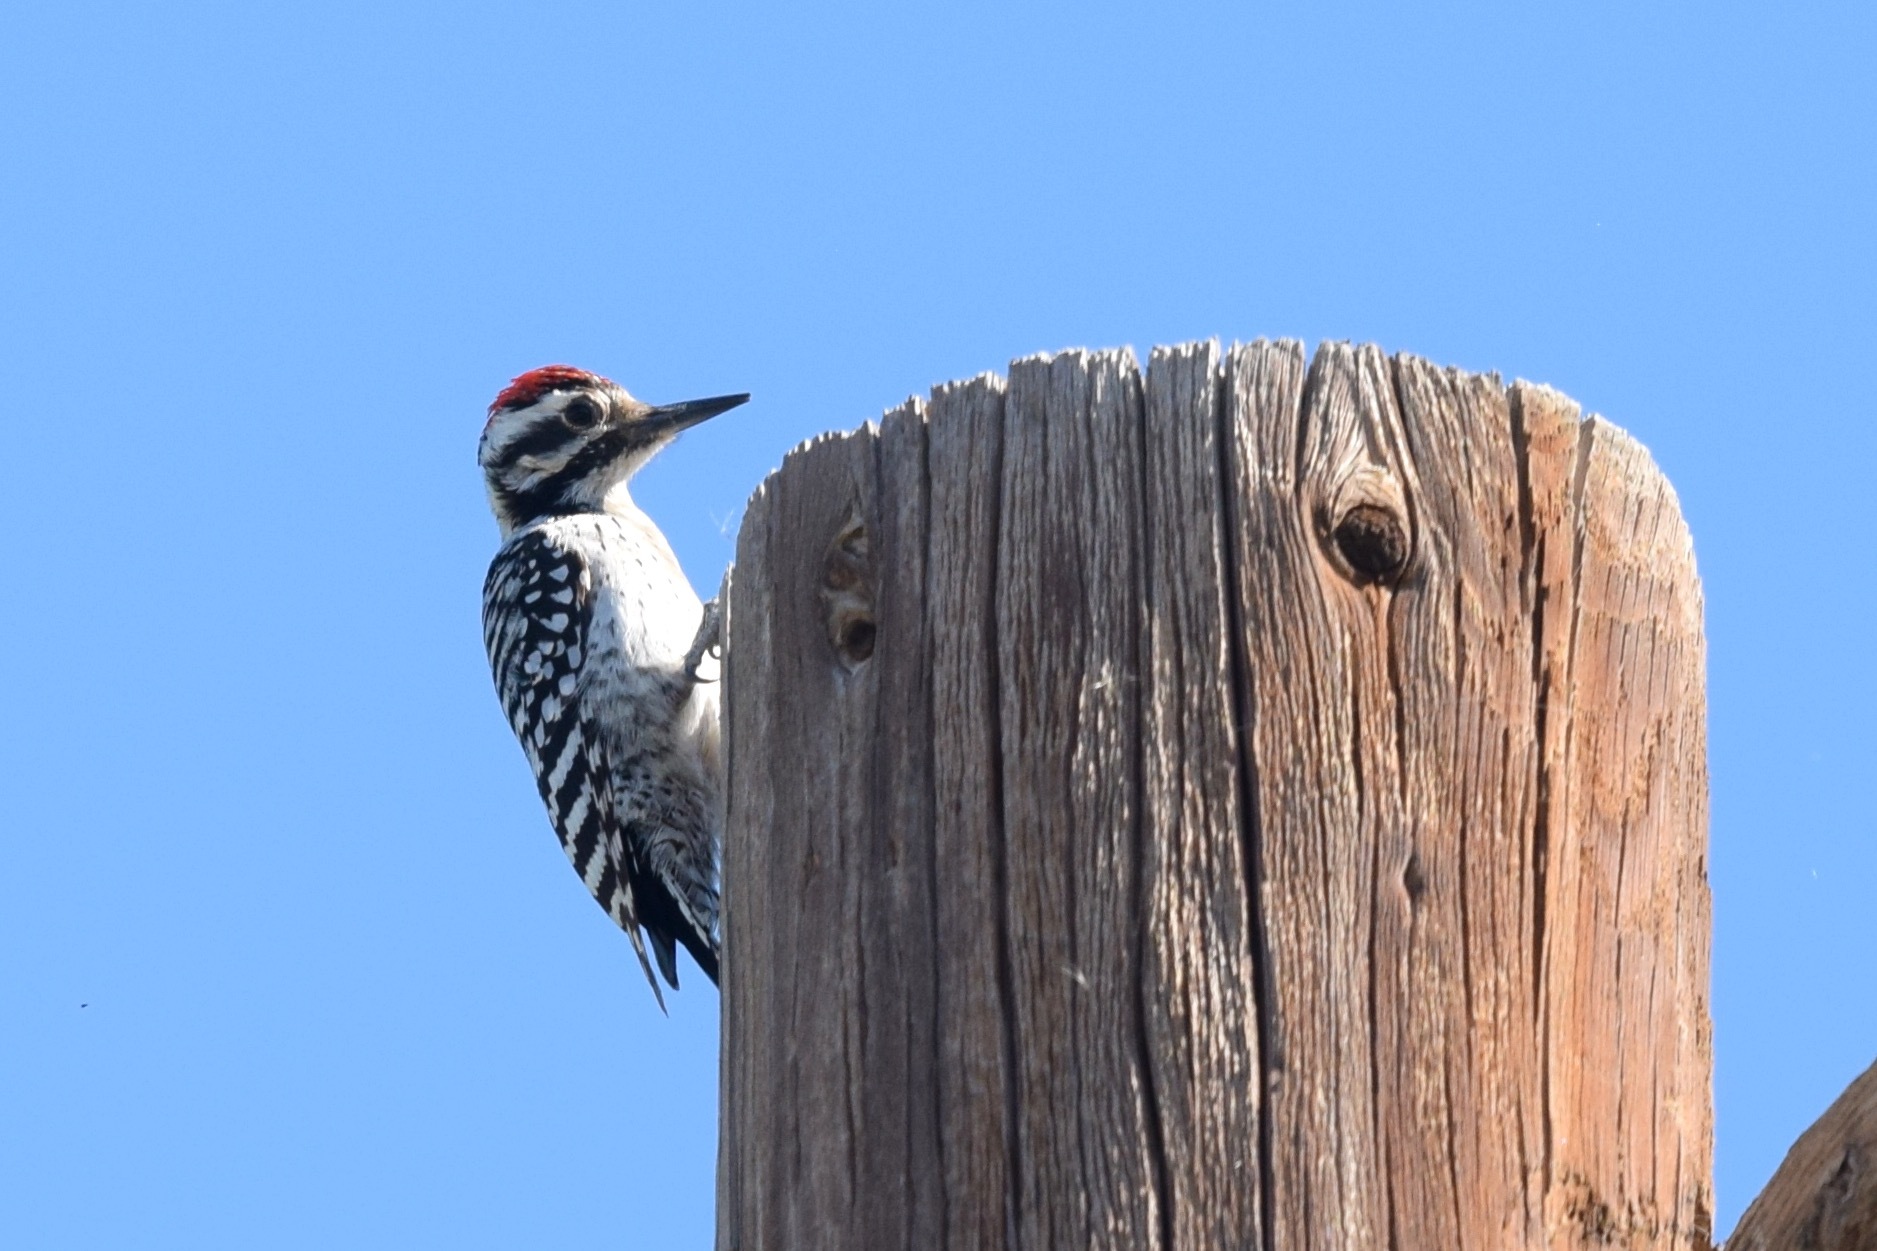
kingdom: Animalia
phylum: Chordata
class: Aves
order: Piciformes
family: Picidae
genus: Dryobates
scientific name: Dryobates scalaris
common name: Ladder-backed woodpecker
